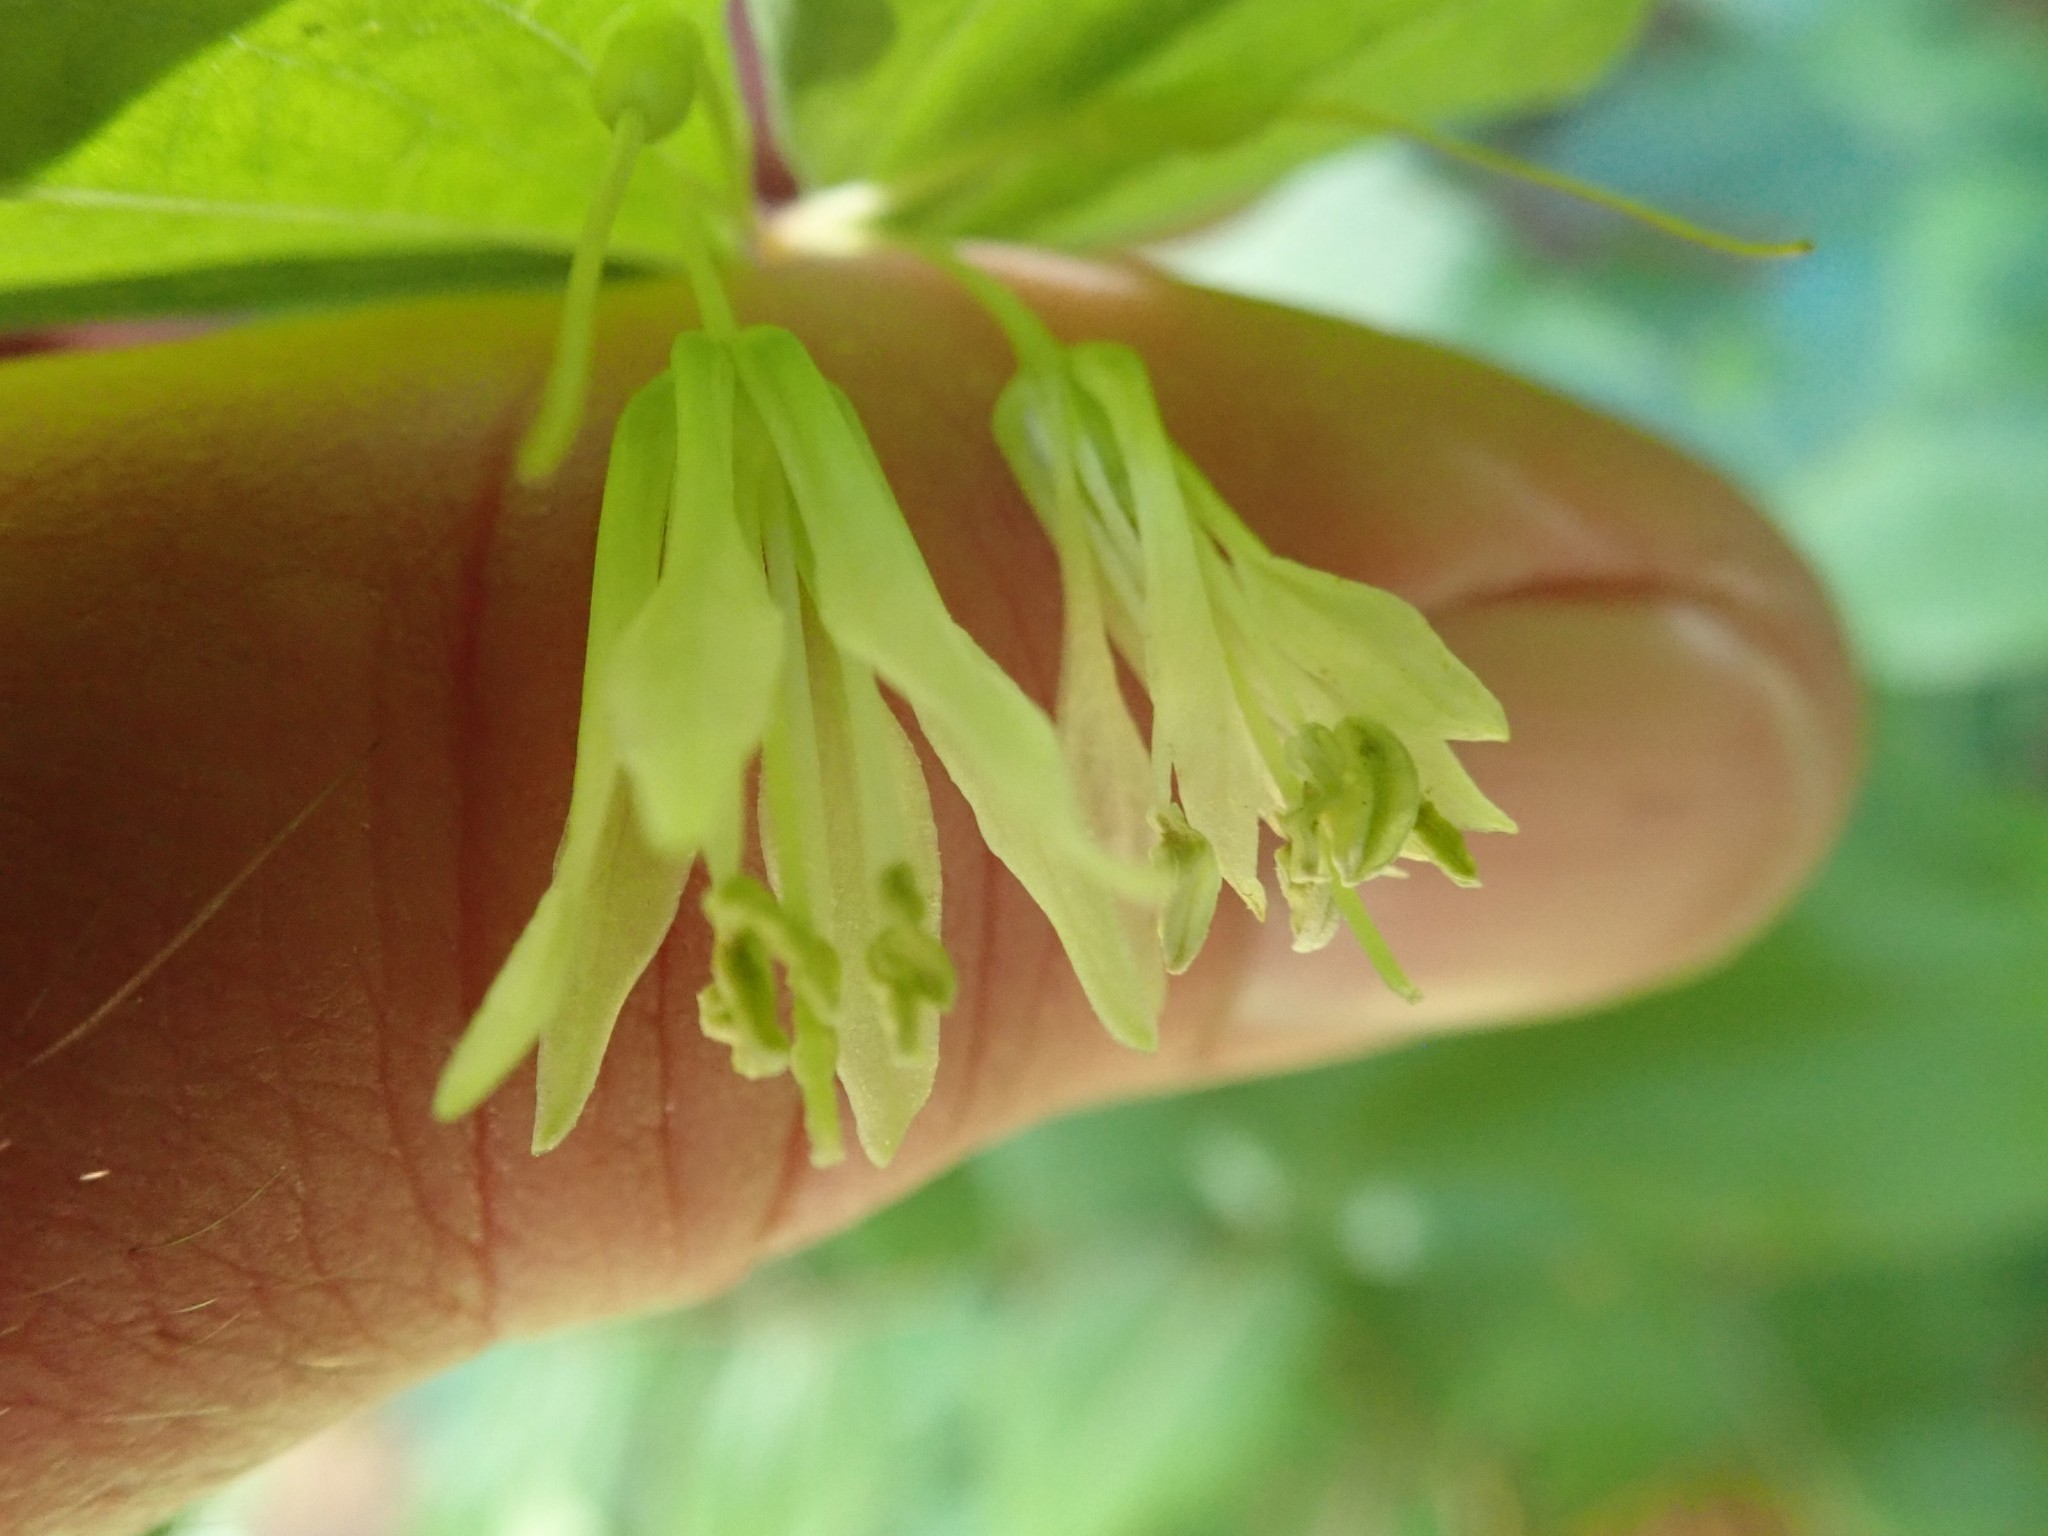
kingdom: Plantae
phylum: Tracheophyta
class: Liliopsida
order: Liliales
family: Liliaceae
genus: Prosartes
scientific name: Prosartes hookeri
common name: Fairy-bells
